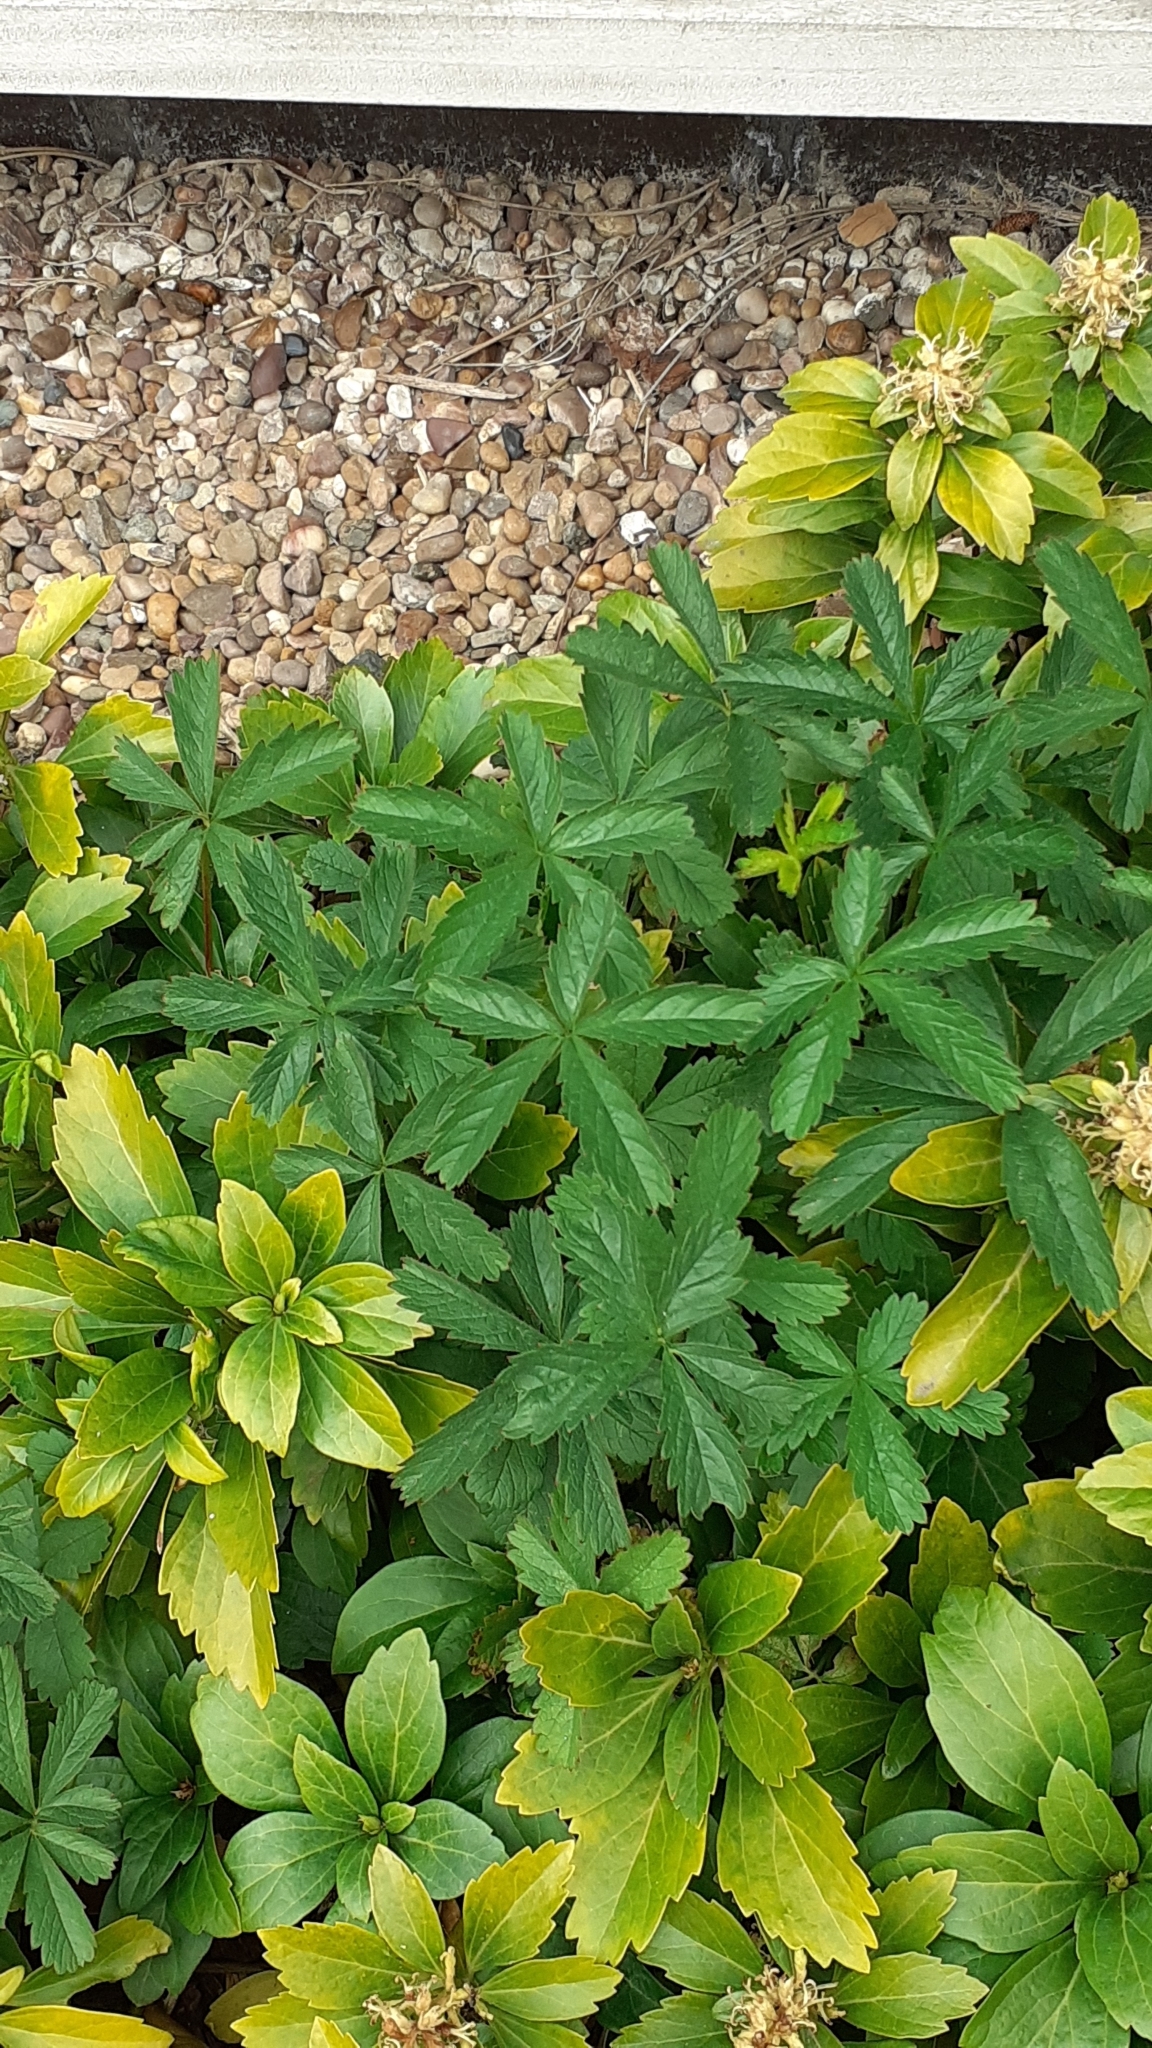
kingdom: Plantae
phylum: Tracheophyta
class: Magnoliopsida
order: Rosales
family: Rosaceae
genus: Potentilla
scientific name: Potentilla reptans
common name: Creeping cinquefoil
